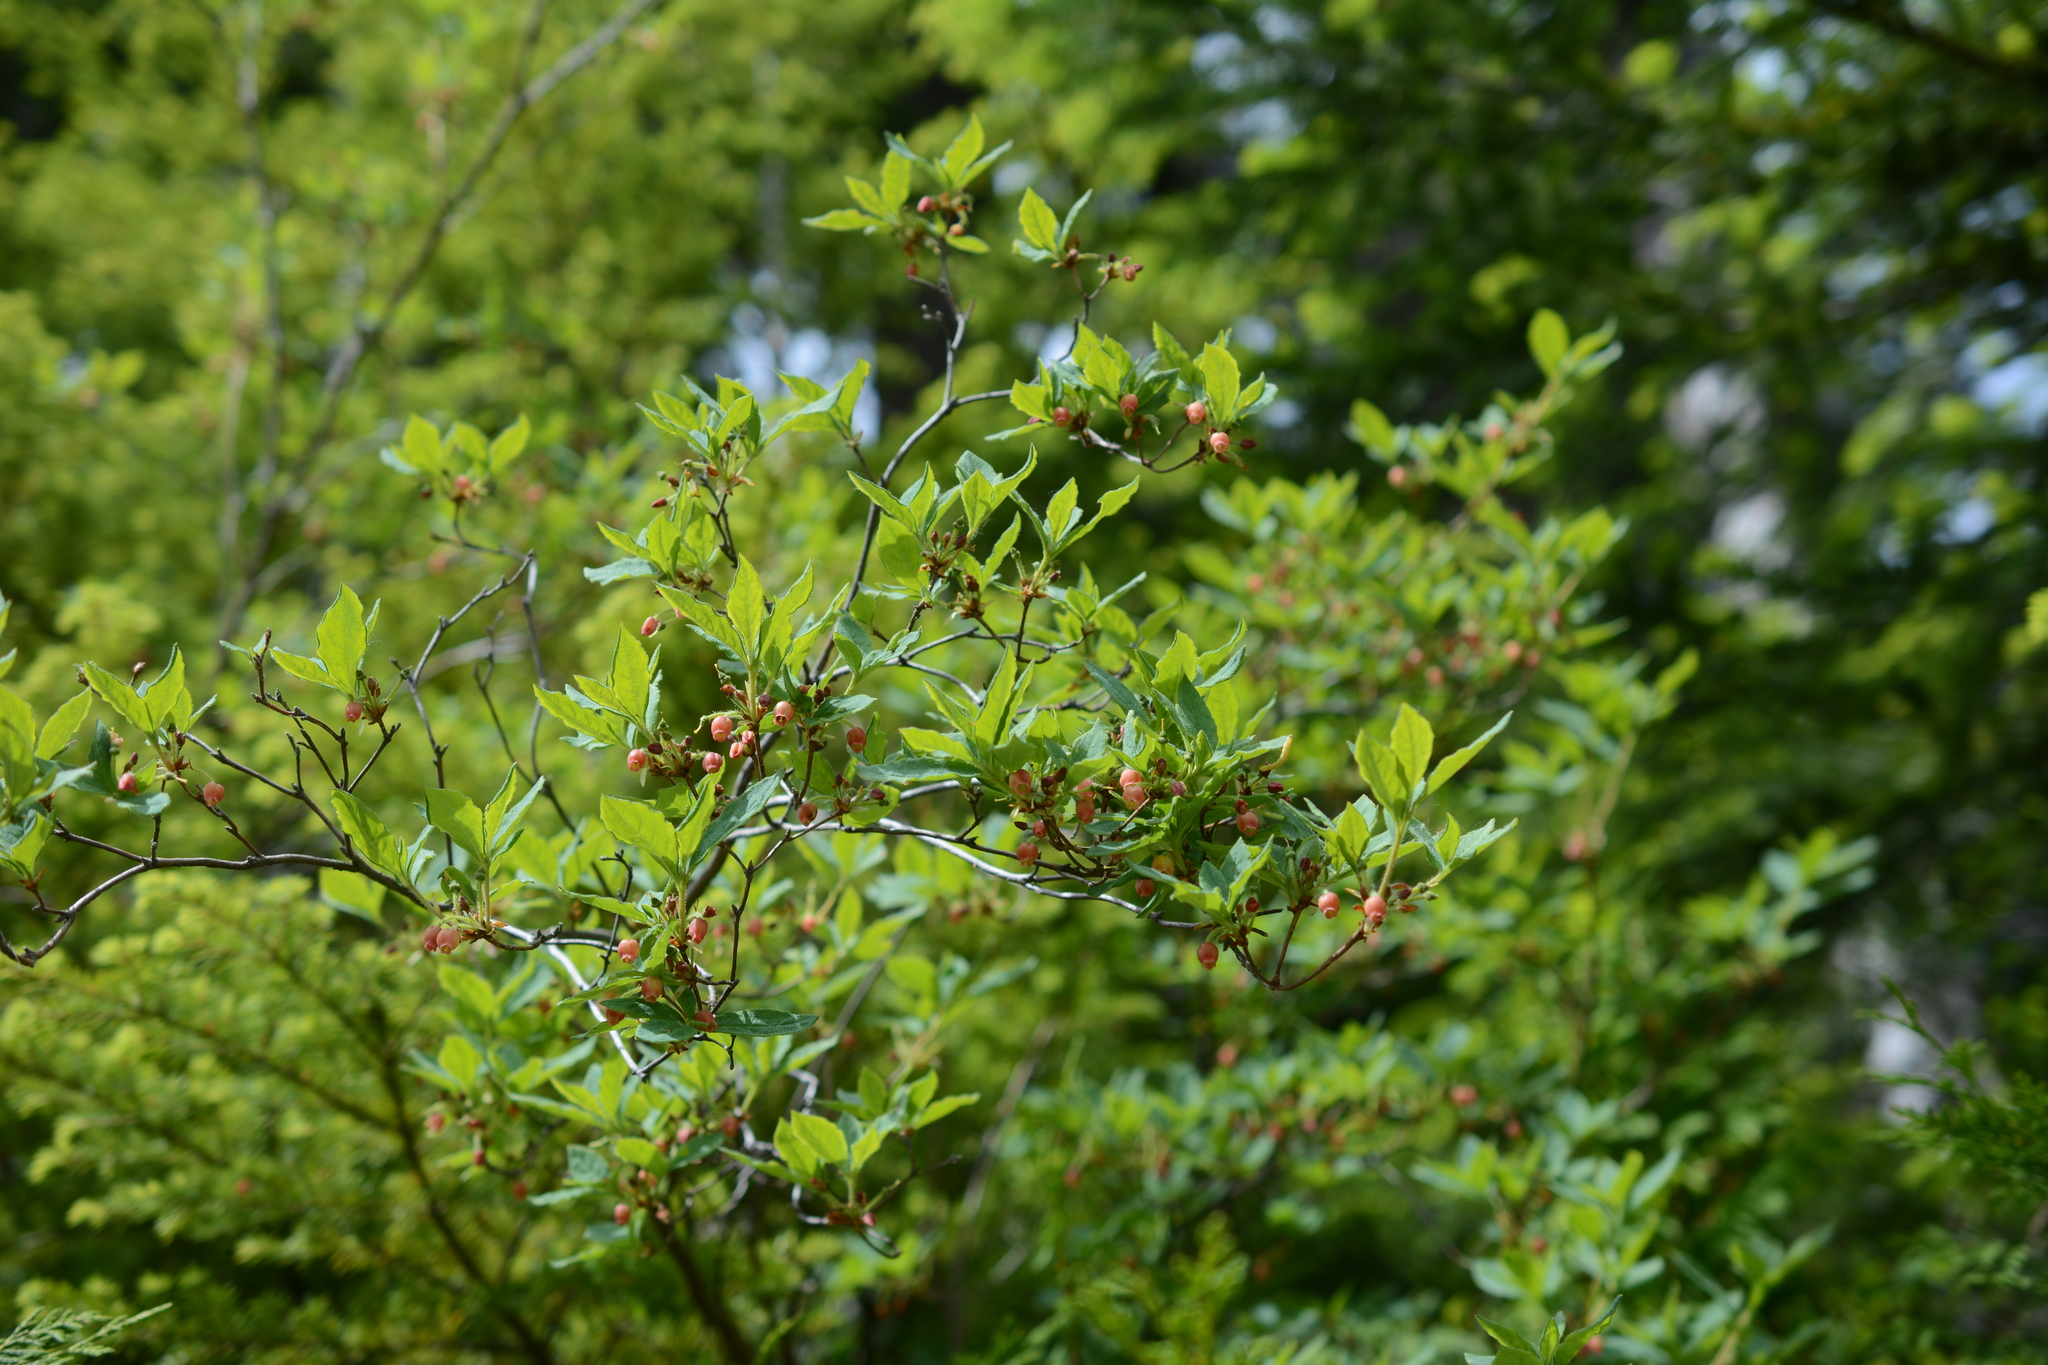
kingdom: Plantae
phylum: Tracheophyta
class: Magnoliopsida
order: Ericales
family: Ericaceae
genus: Rhododendron
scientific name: Rhododendron menziesii
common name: Pacific menziesia
